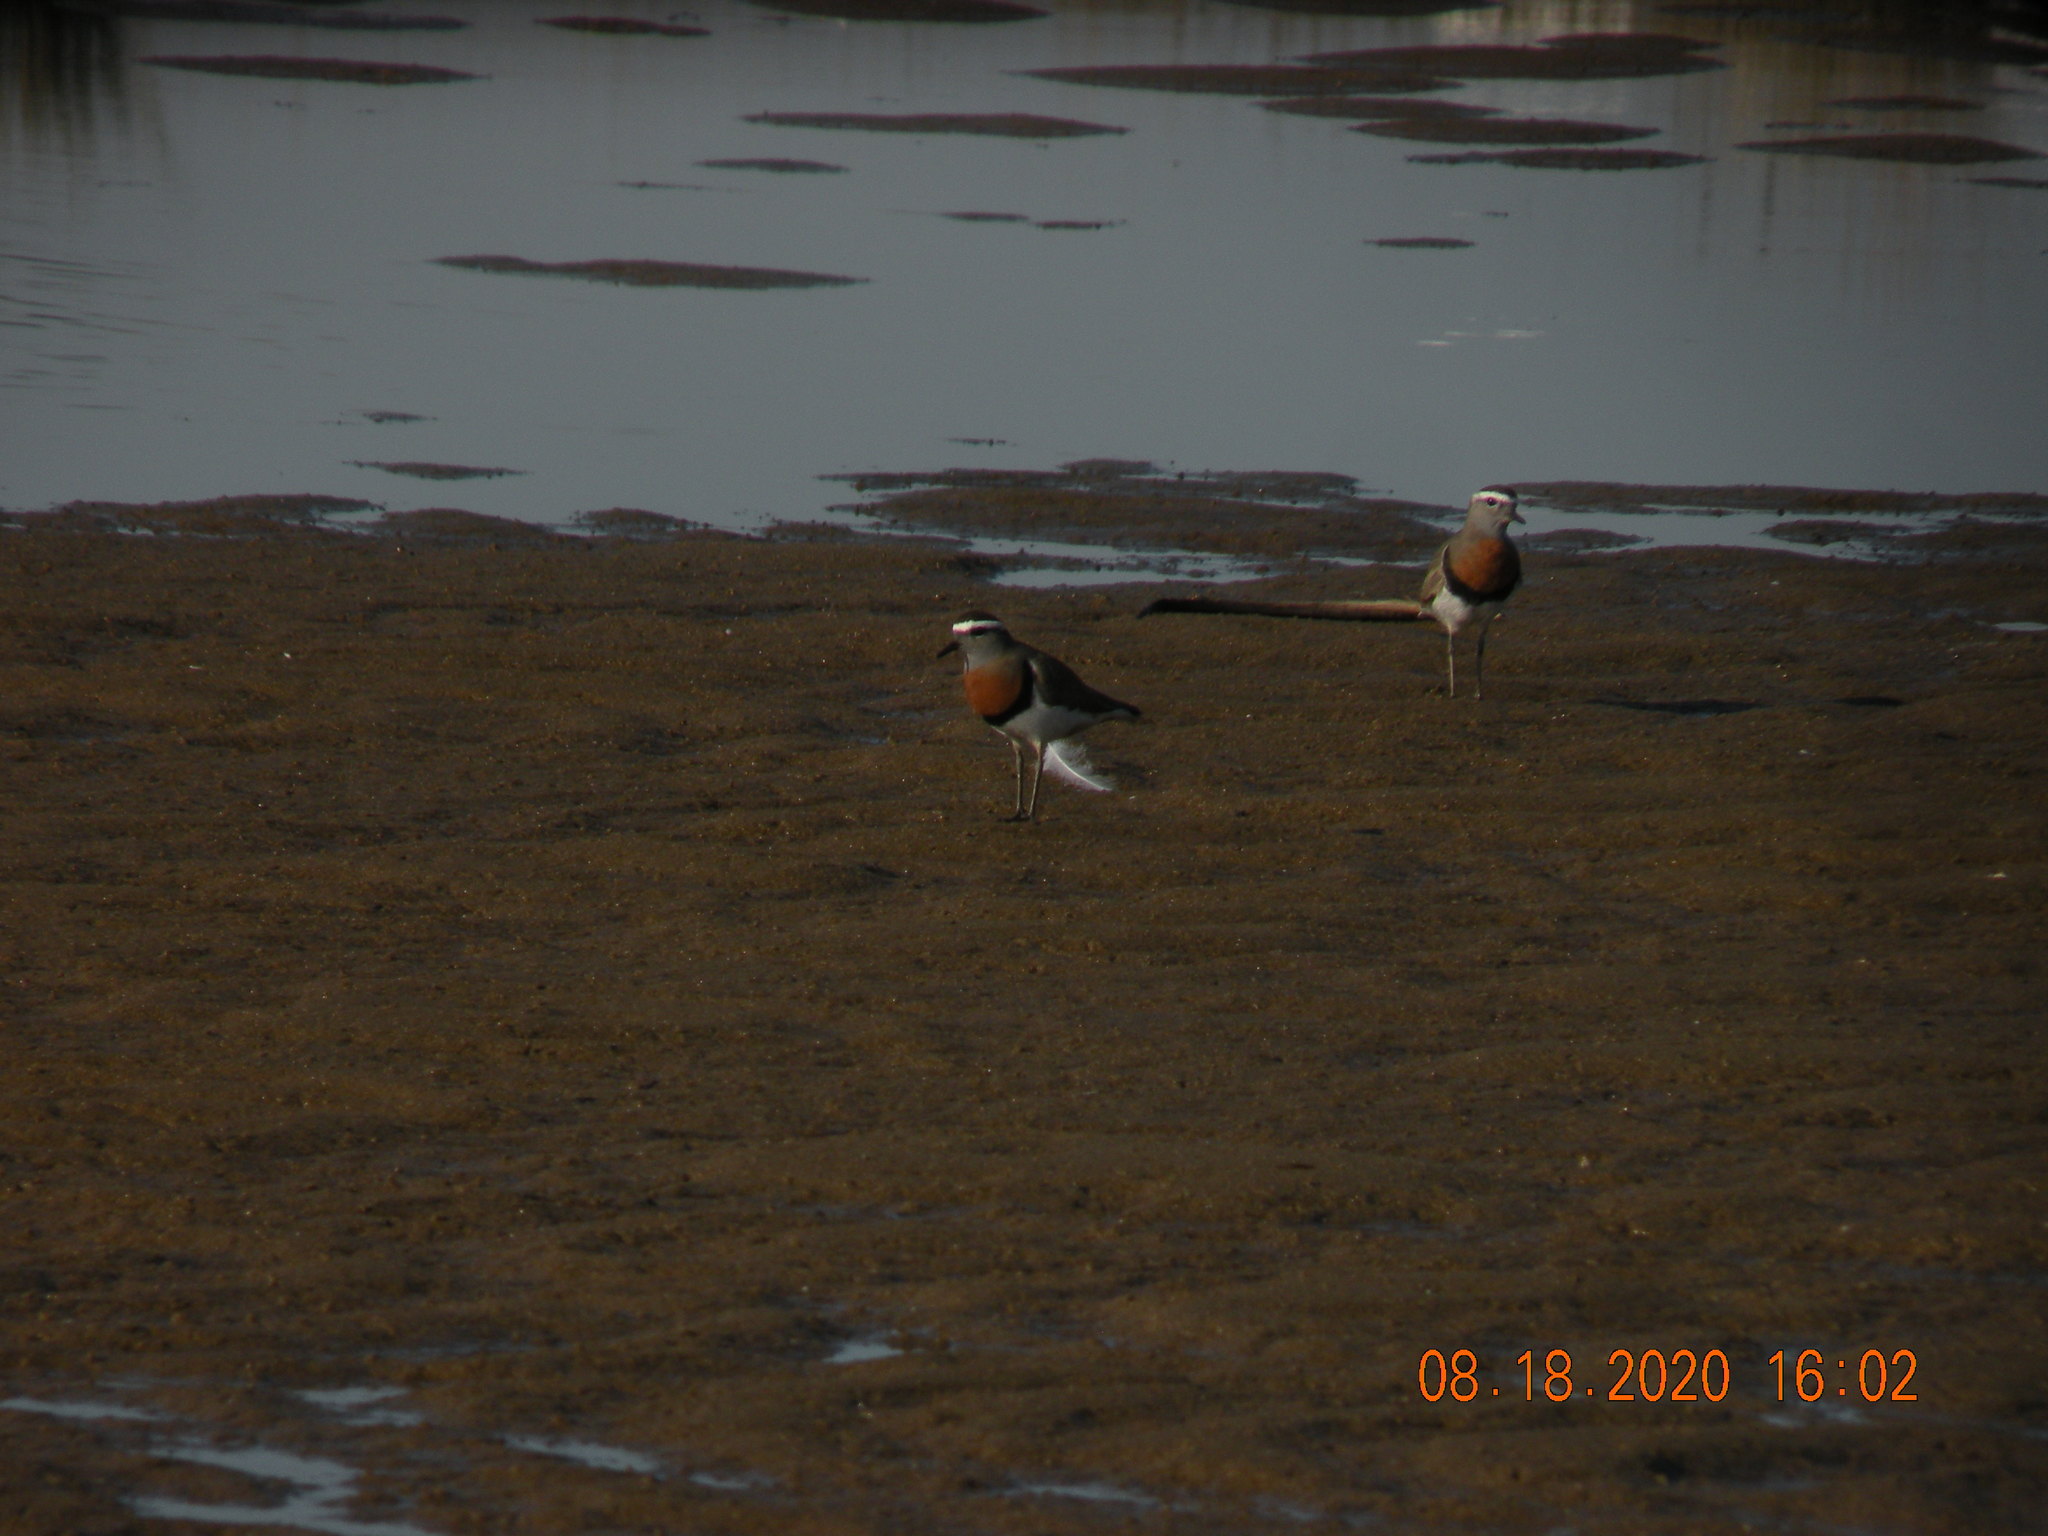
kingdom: Animalia
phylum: Chordata
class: Aves
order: Charadriiformes
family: Charadriidae
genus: Charadrius
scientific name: Charadrius modestus
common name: Rufous-chested plover
